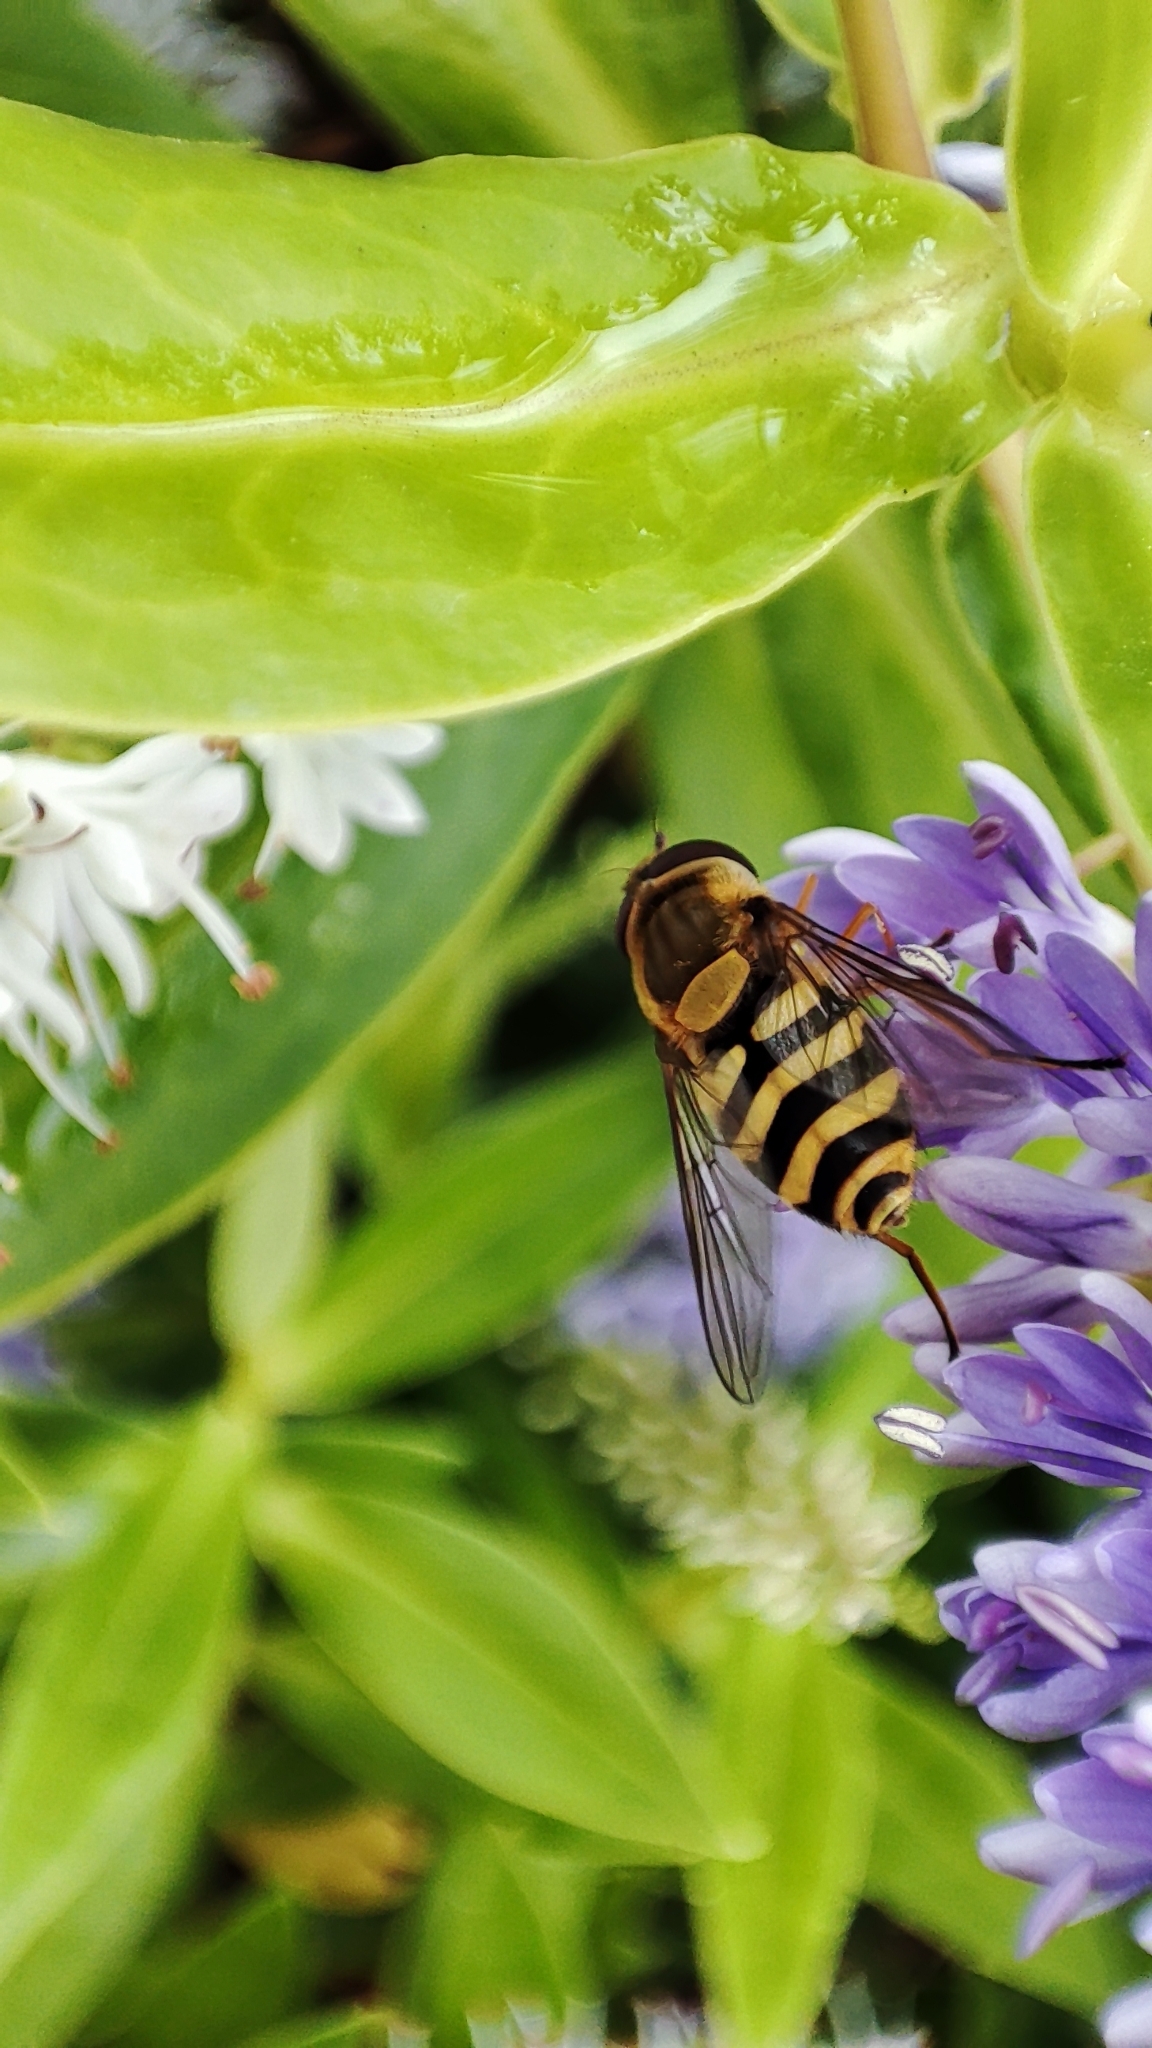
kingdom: Animalia
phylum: Arthropoda
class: Insecta
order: Diptera
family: Syrphidae
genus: Syrphus
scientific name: Syrphus ribesii
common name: Common flower fly
